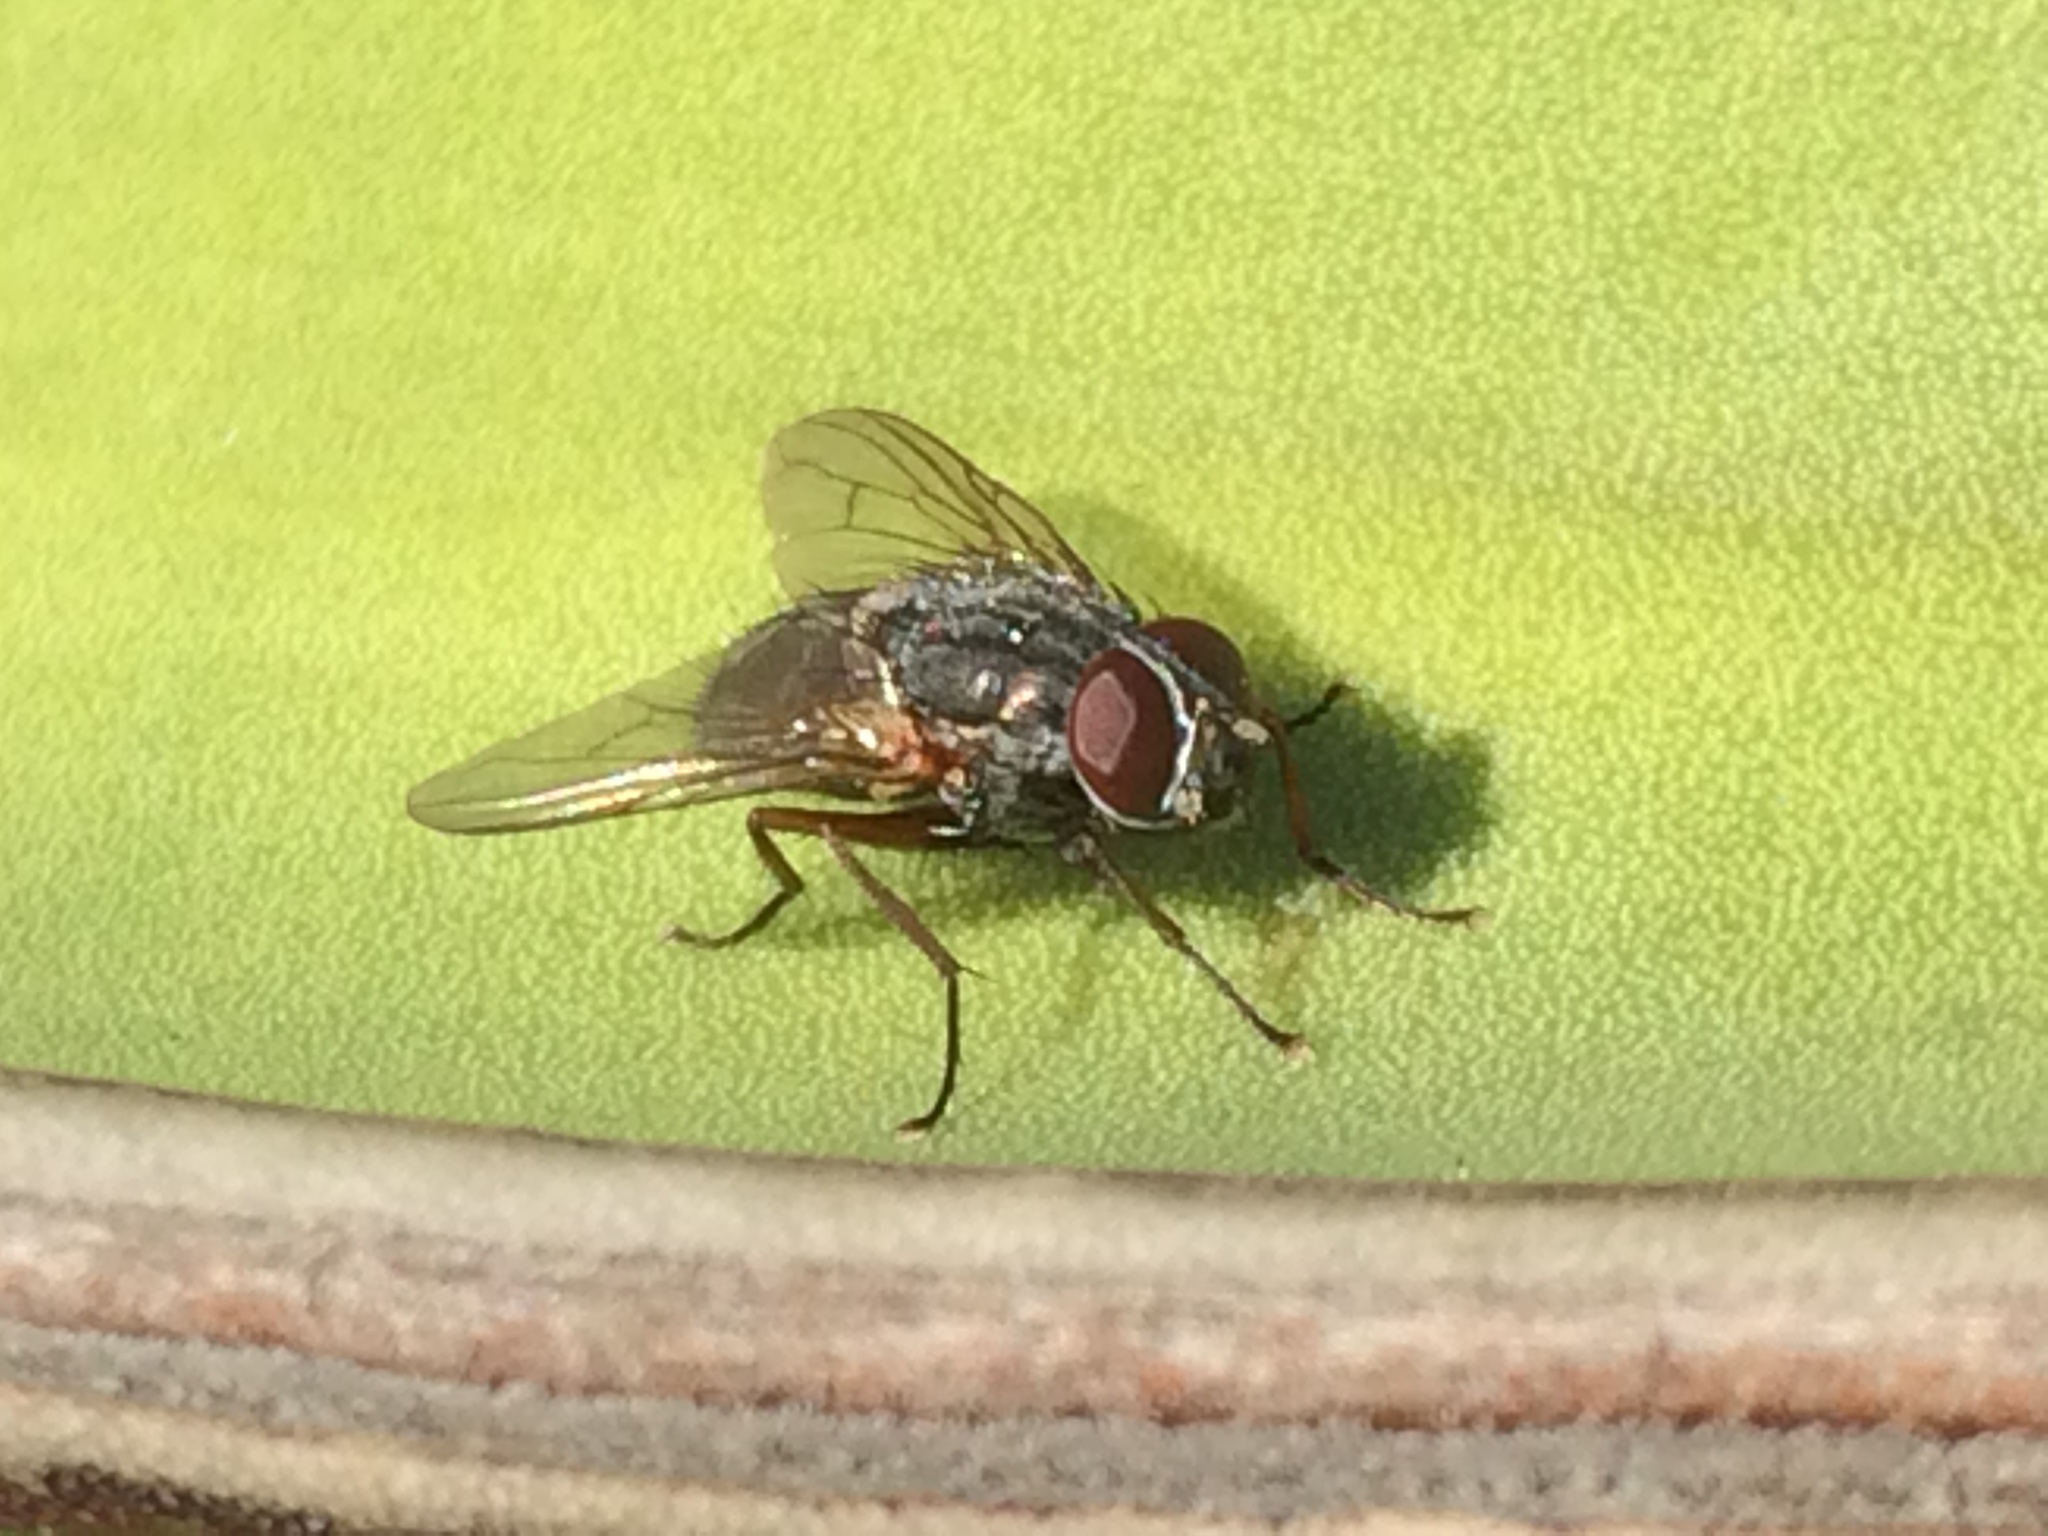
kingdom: Animalia
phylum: Arthropoda
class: Insecta
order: Diptera
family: Muscidae
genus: Muscina
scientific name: Muscina stabulans
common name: False stable fly
